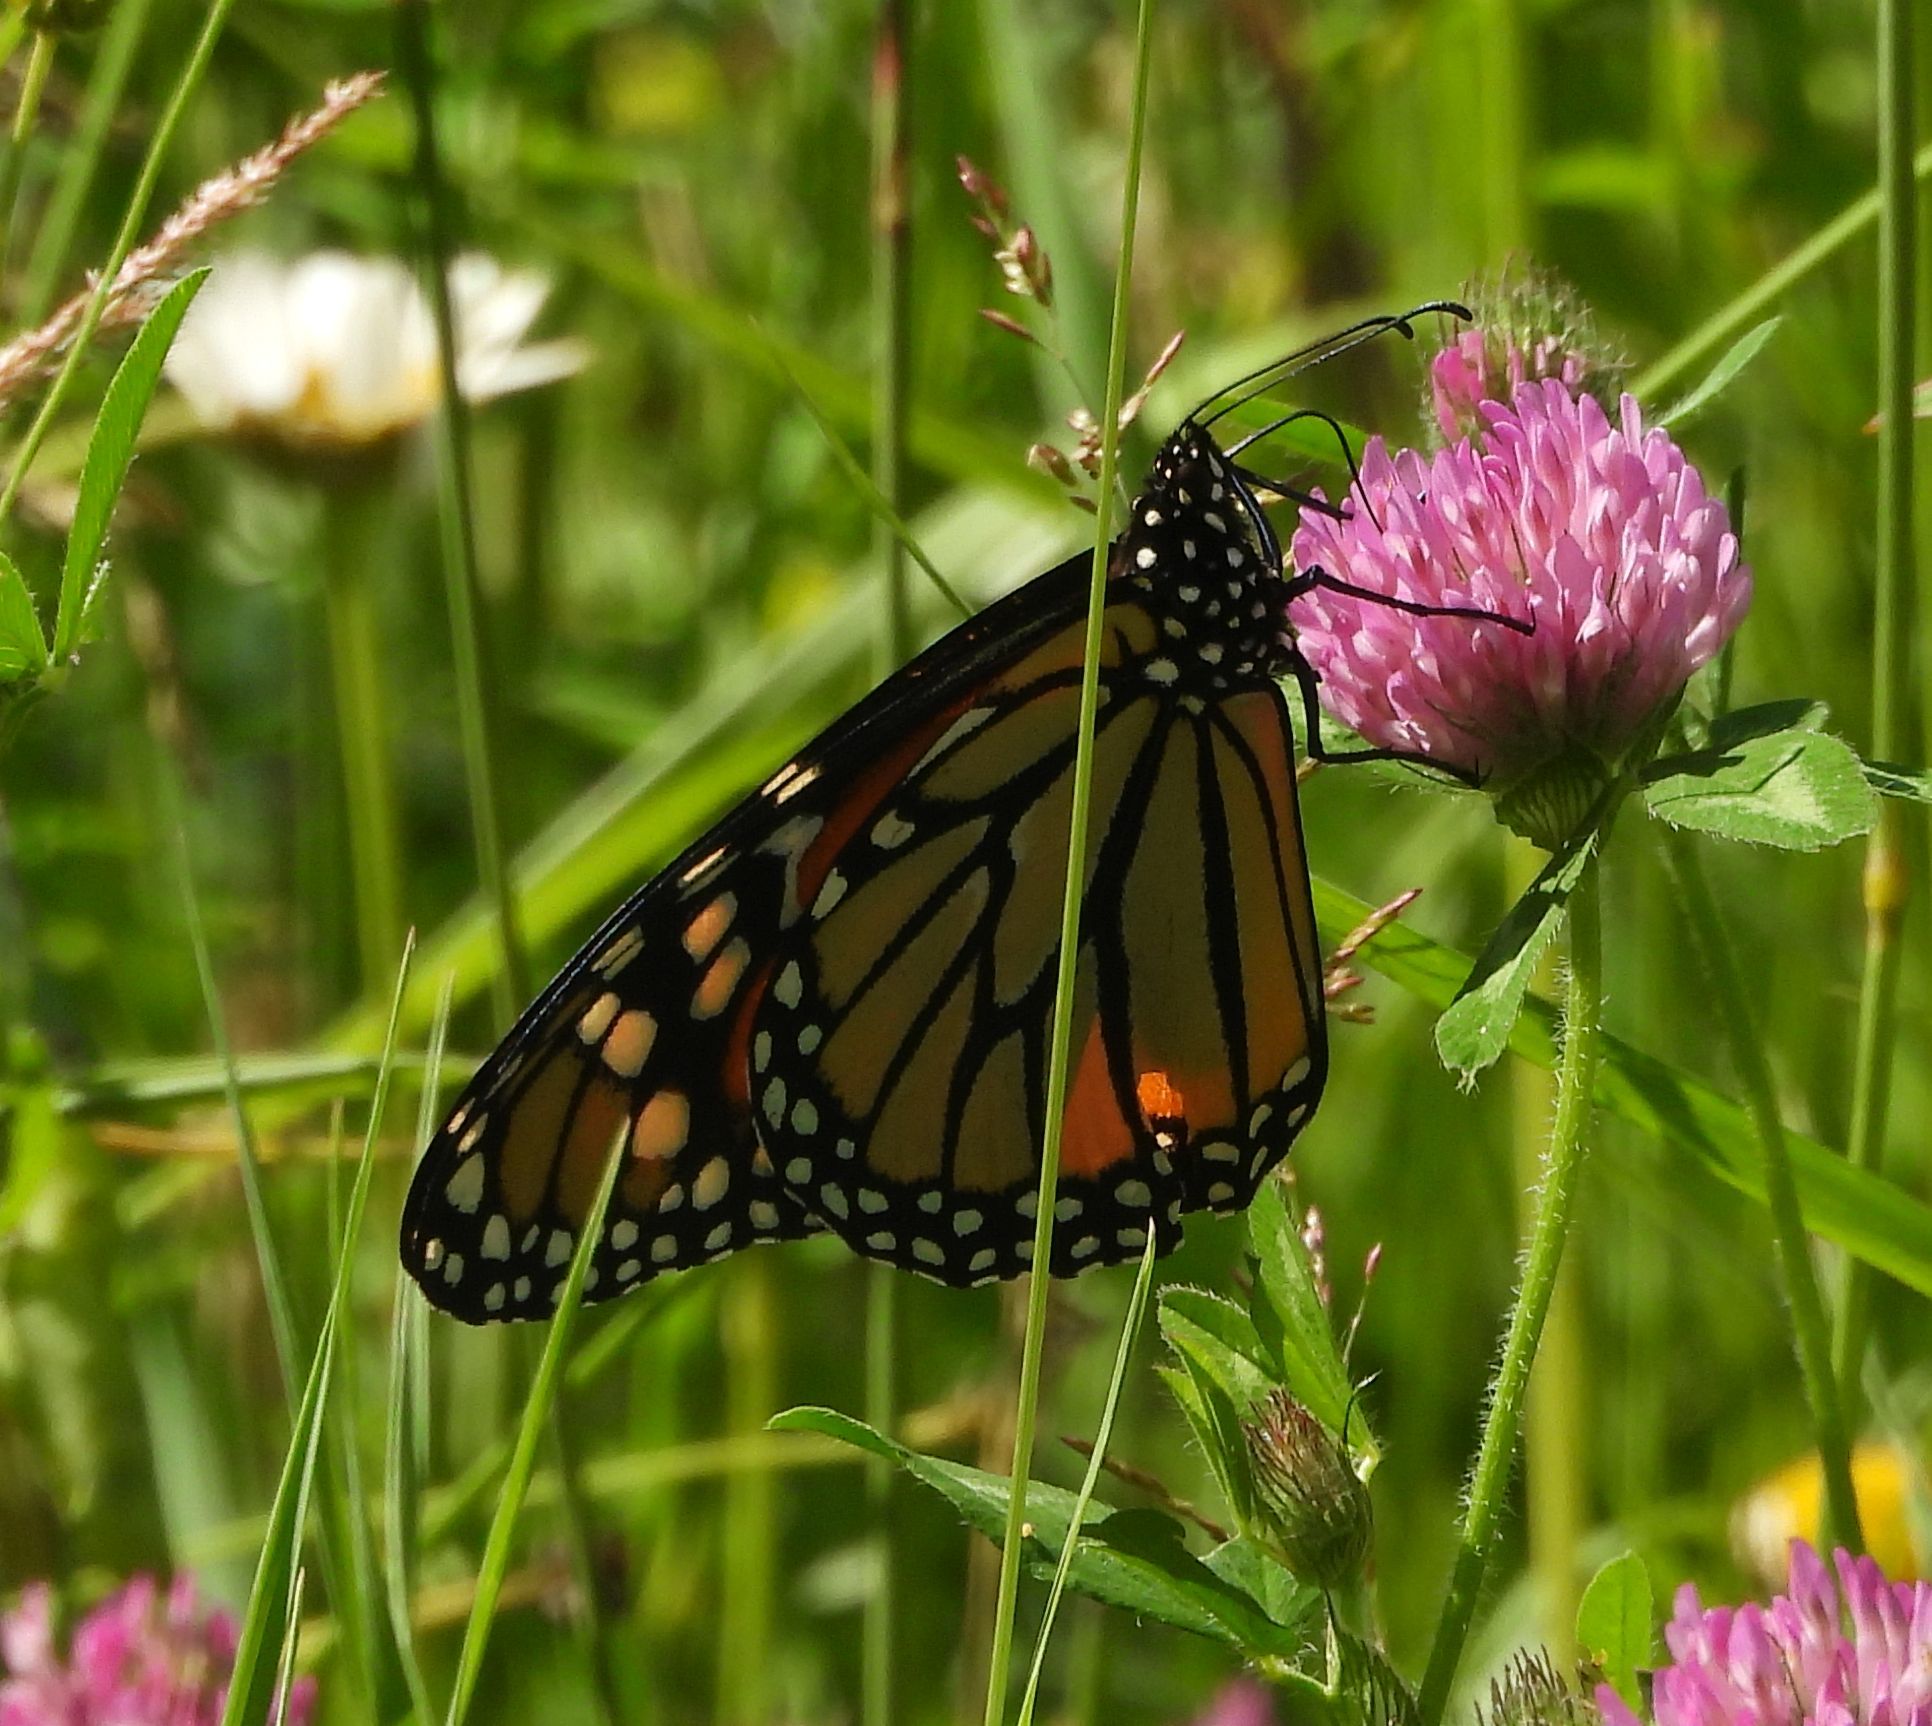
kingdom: Animalia
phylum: Arthropoda
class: Insecta
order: Lepidoptera
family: Nymphalidae
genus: Danaus
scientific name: Danaus plexippus
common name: Monarch
